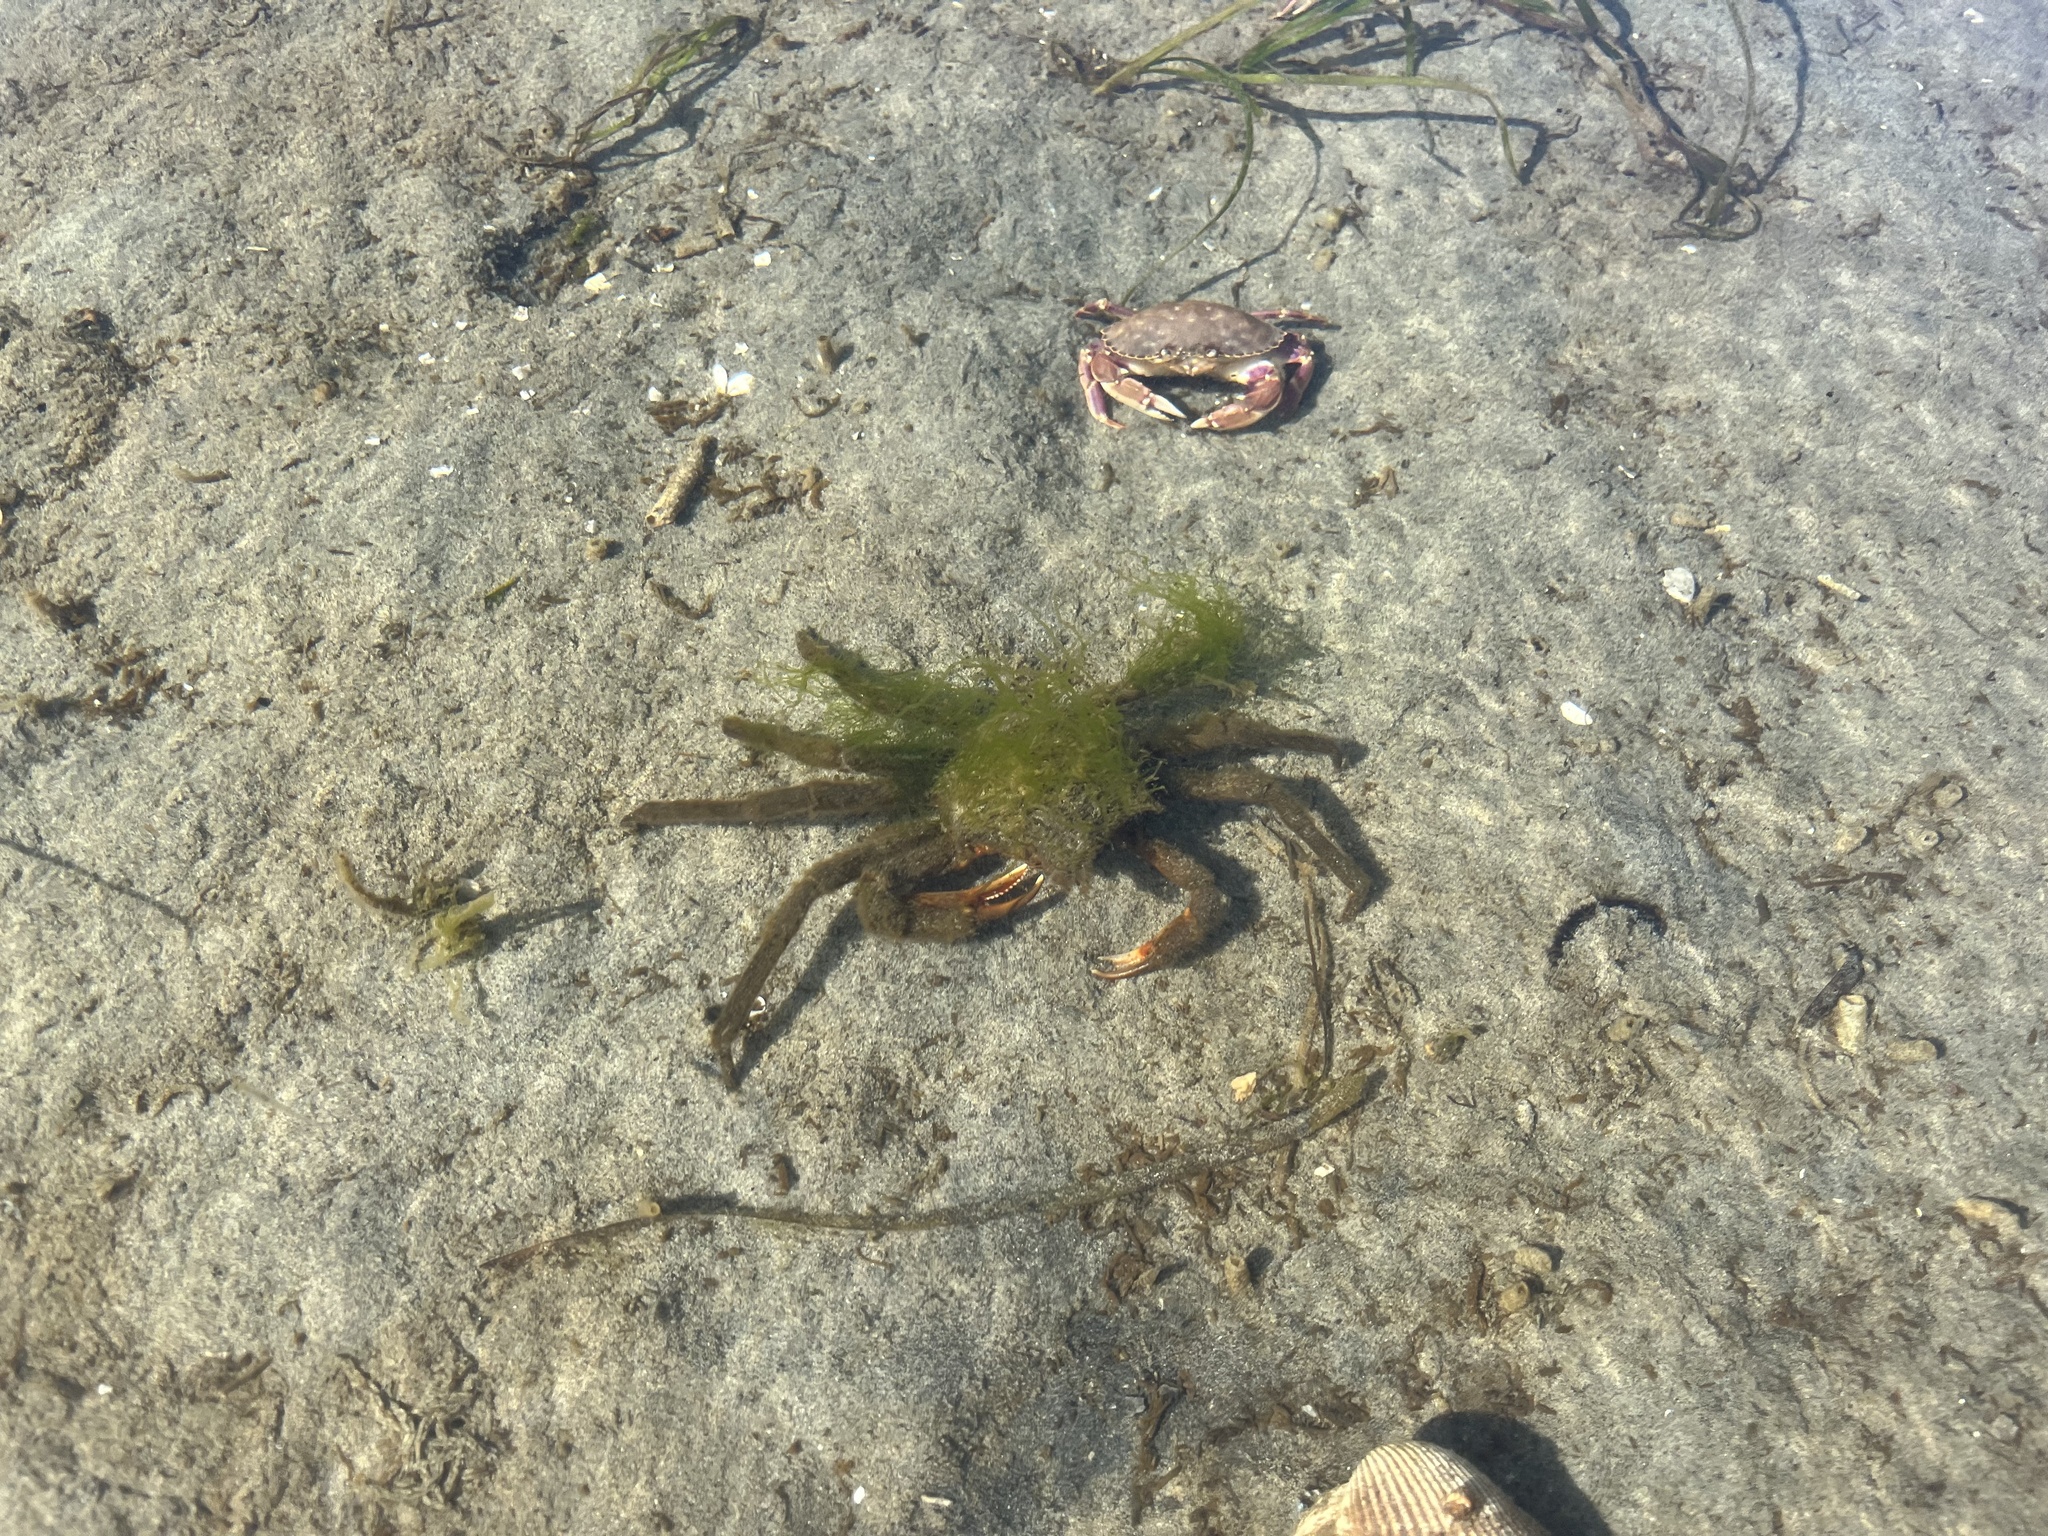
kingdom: Animalia
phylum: Arthropoda
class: Malacostraca
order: Decapoda
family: Epialtidae
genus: Pugettia
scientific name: Pugettia producta
